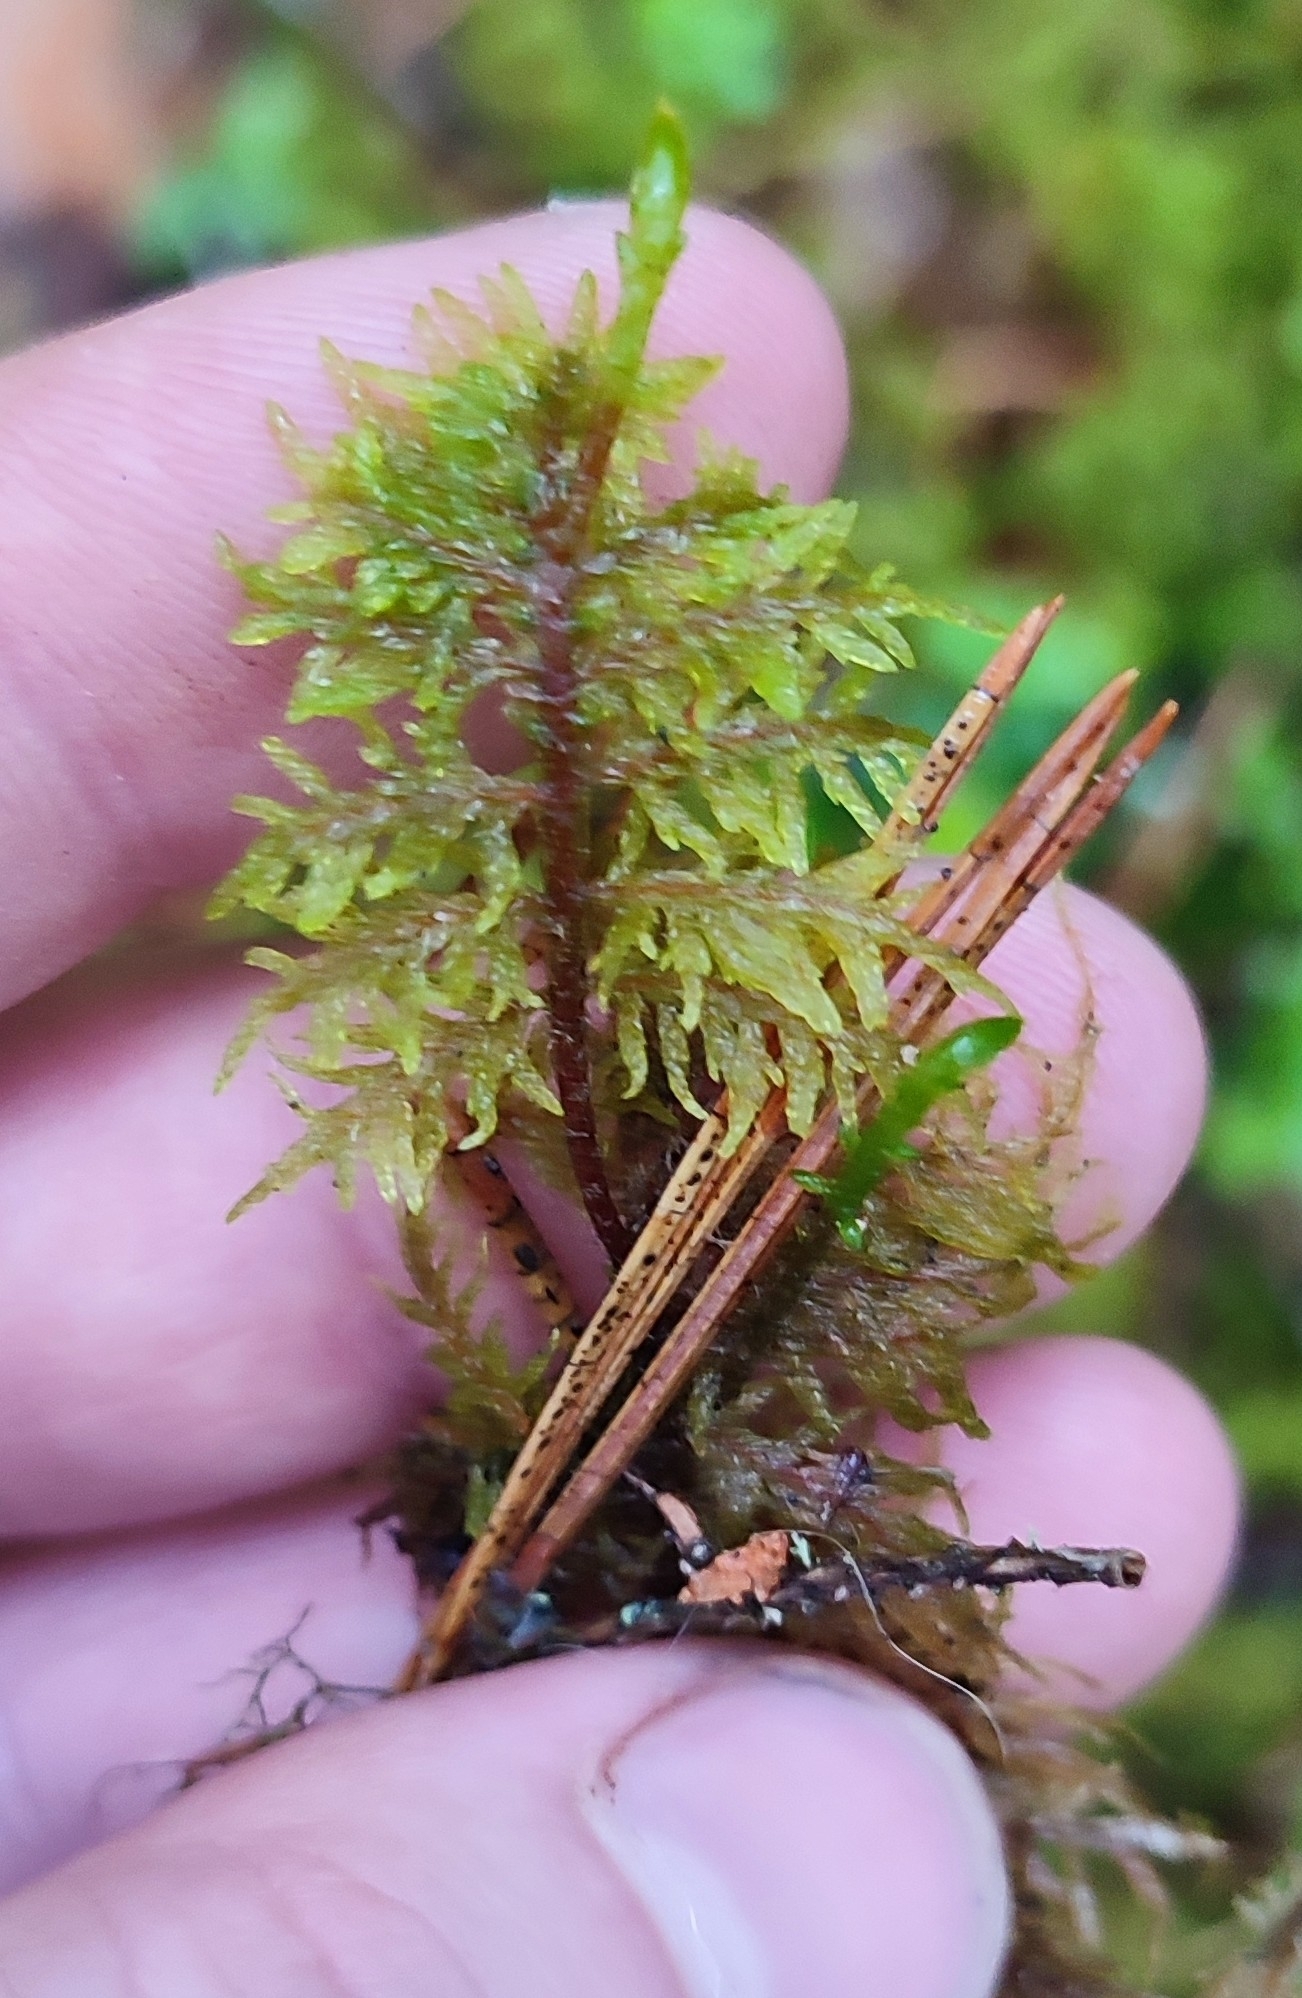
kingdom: Plantae
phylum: Bryophyta
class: Bryopsida
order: Hypnales
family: Hylocomiaceae
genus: Hylocomium
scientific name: Hylocomium splendens
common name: Stairstep moss
